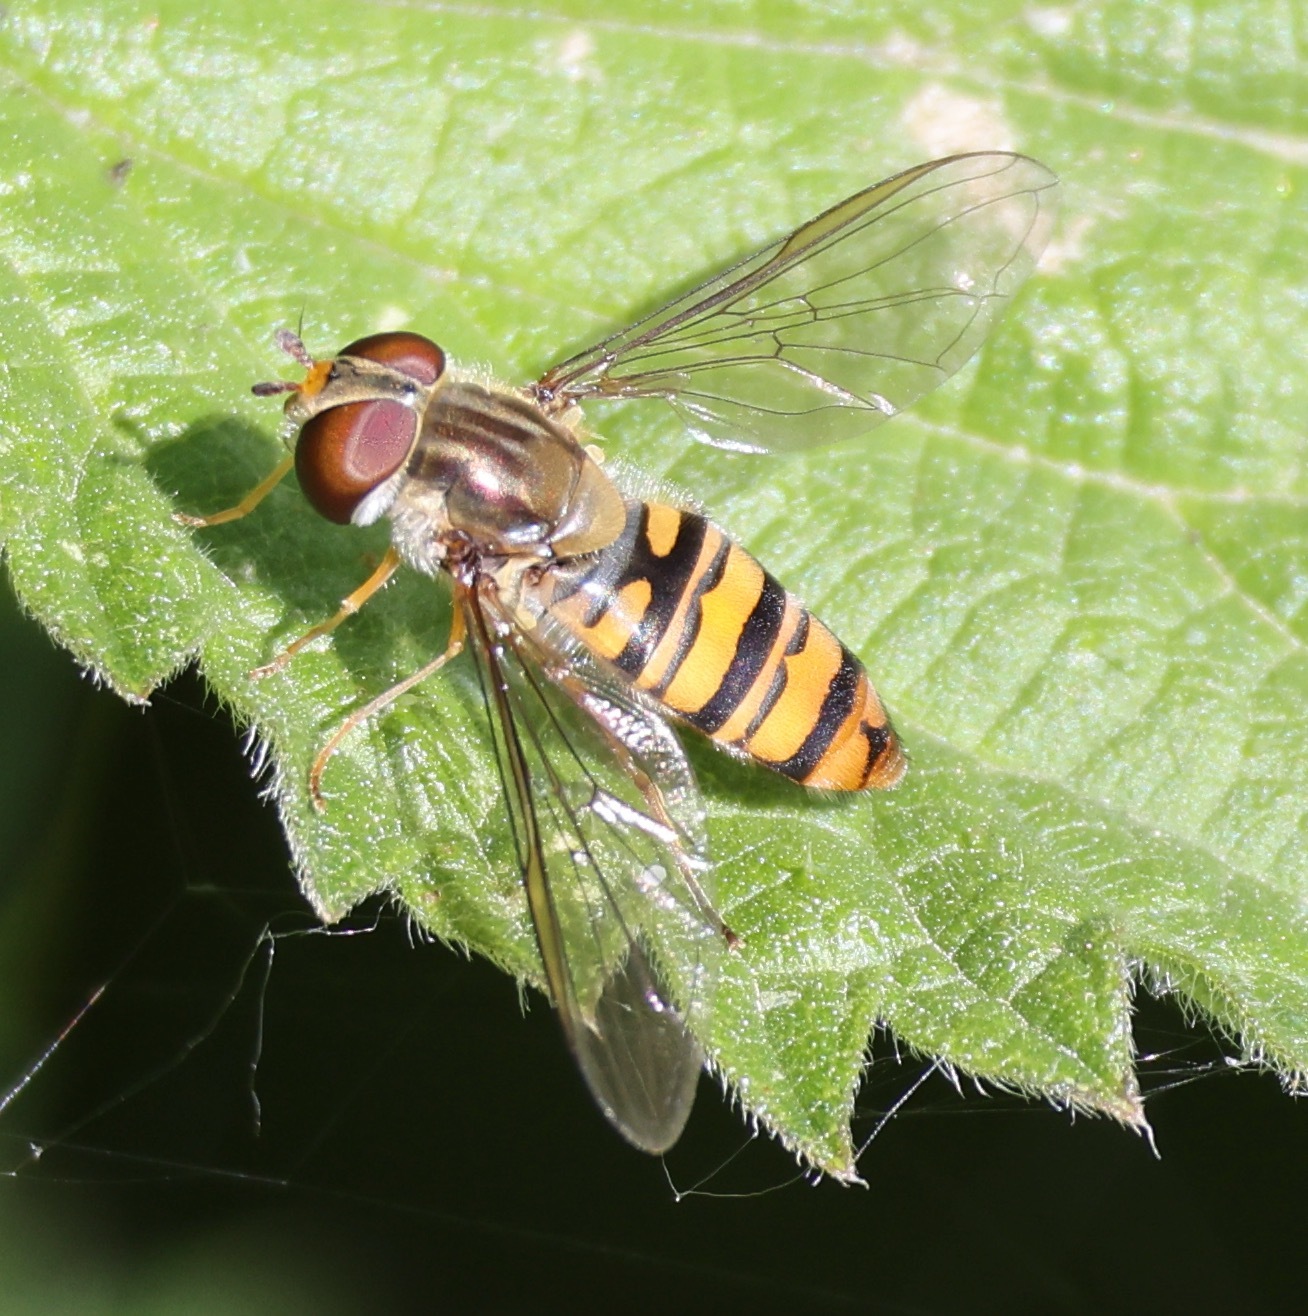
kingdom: Animalia
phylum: Arthropoda
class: Insecta
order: Diptera
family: Syrphidae
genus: Episyrphus
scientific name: Episyrphus balteatus
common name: Marmalade hoverfly
